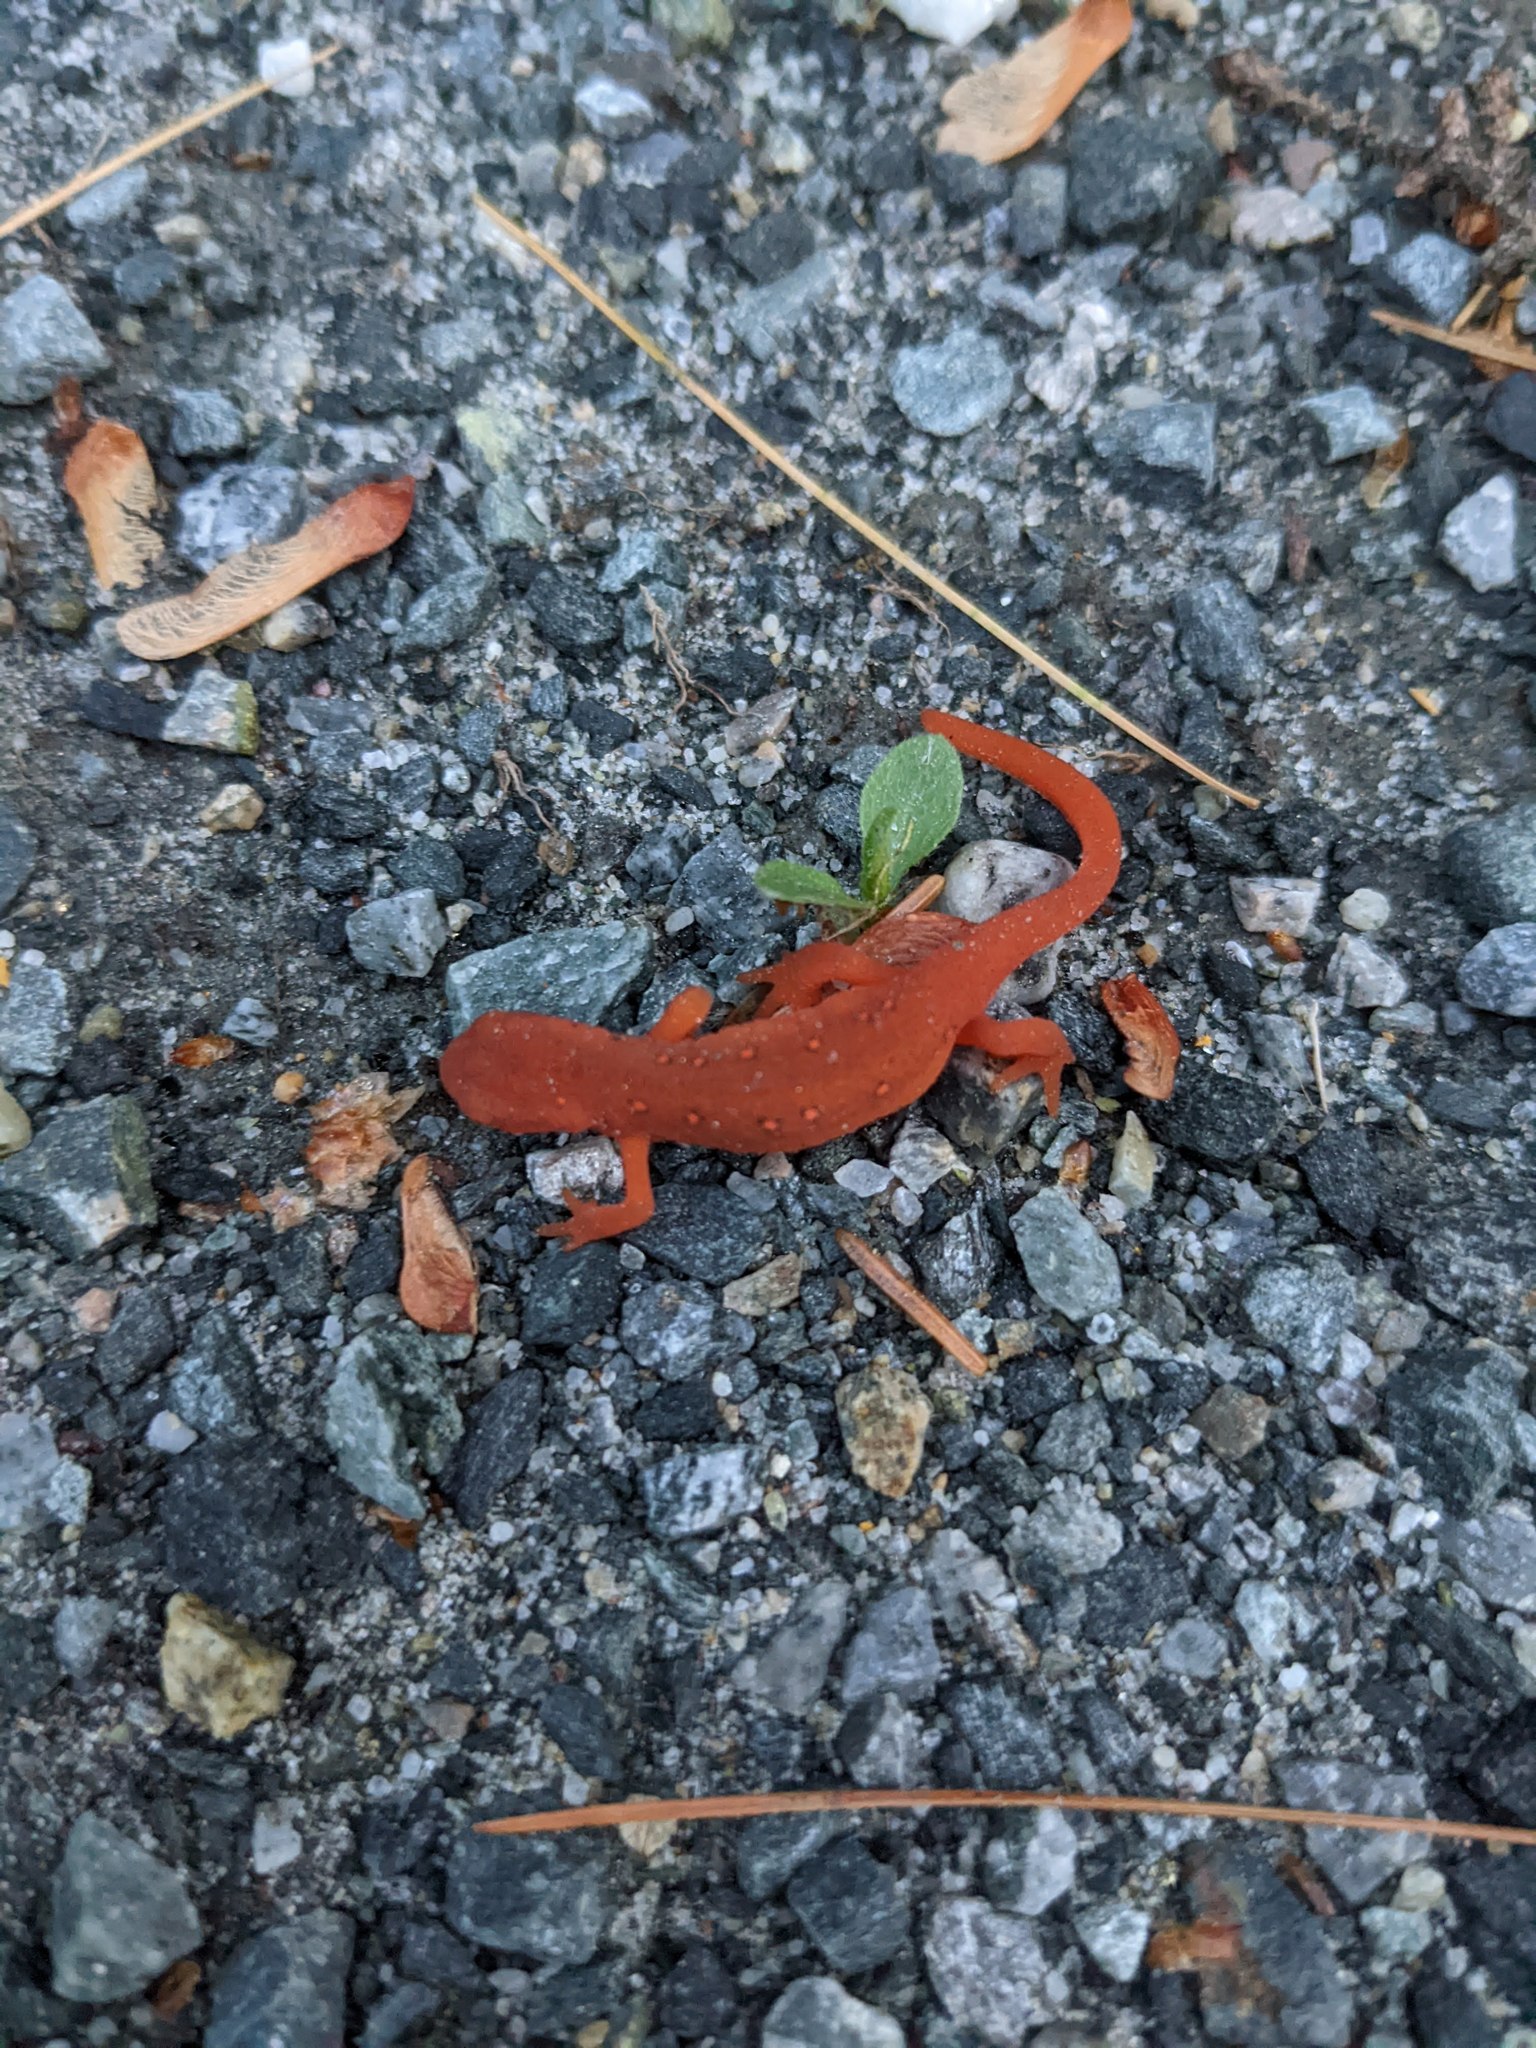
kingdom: Animalia
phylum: Chordata
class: Amphibia
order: Caudata
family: Salamandridae
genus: Notophthalmus
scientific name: Notophthalmus viridescens
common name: Eastern newt
